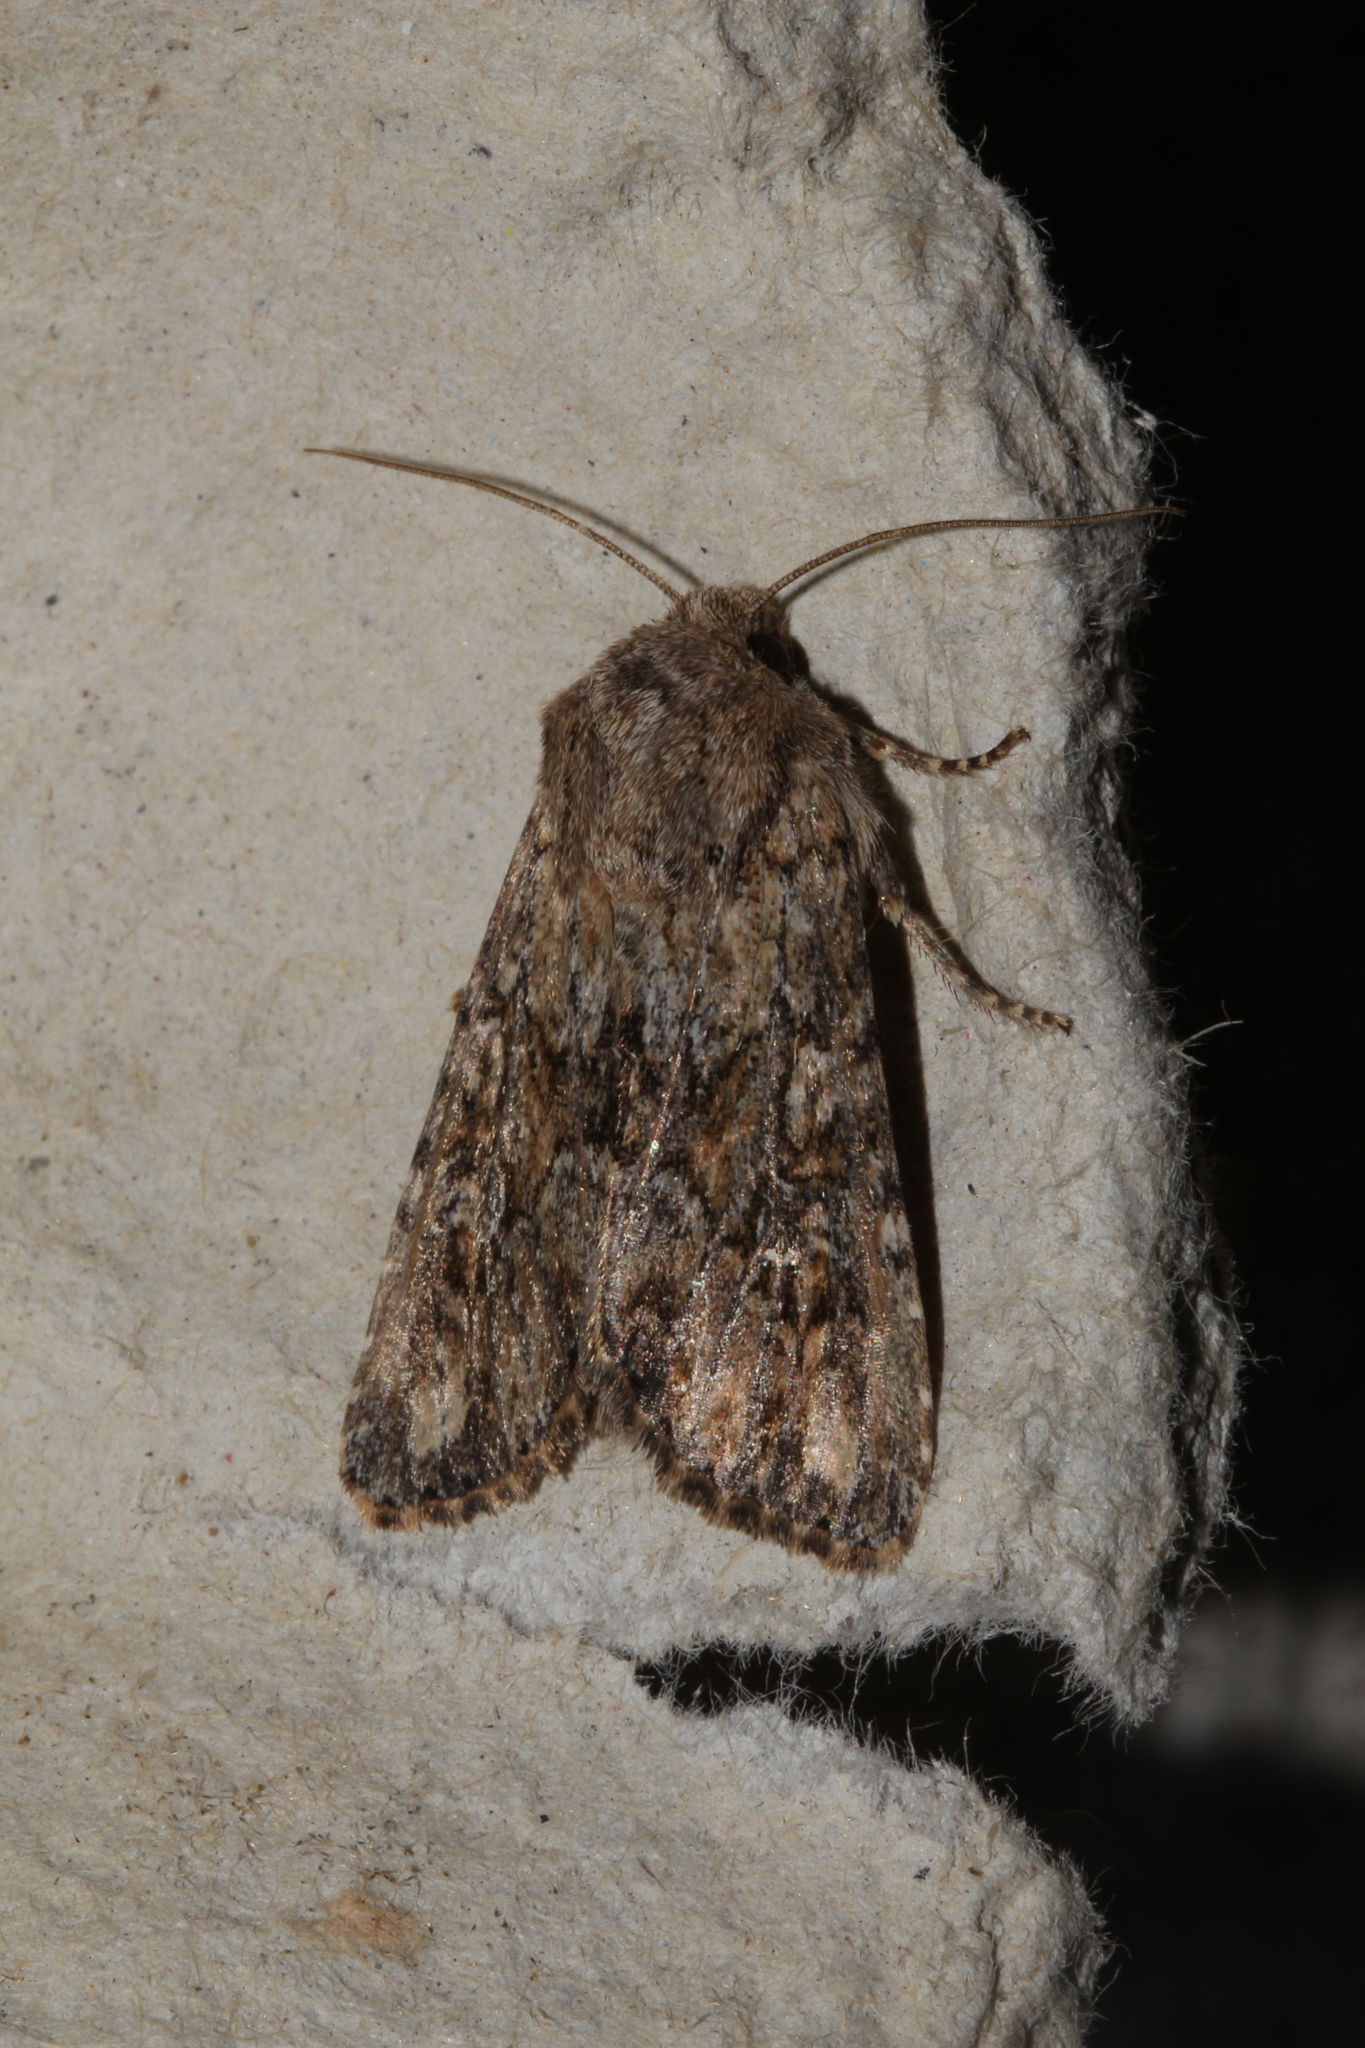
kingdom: Animalia
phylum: Arthropoda
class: Insecta
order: Lepidoptera
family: Noctuidae
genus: Apamea
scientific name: Apamea anceps
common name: Large nutmeg
